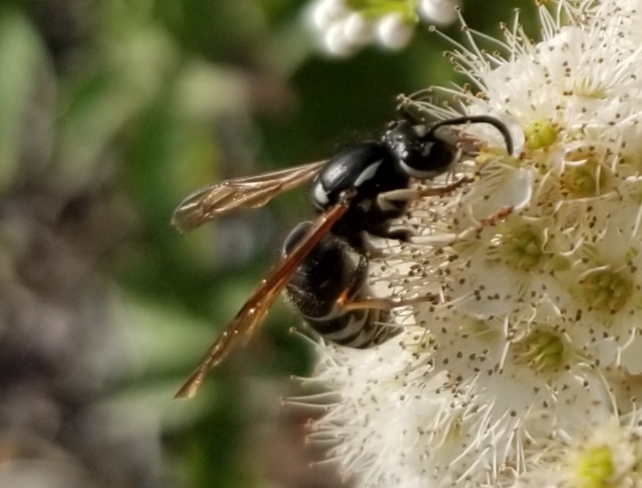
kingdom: Animalia
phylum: Arthropoda
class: Insecta
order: Hymenoptera
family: Vespidae
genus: Vespula
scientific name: Vespula consobrina
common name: Blackjacket
